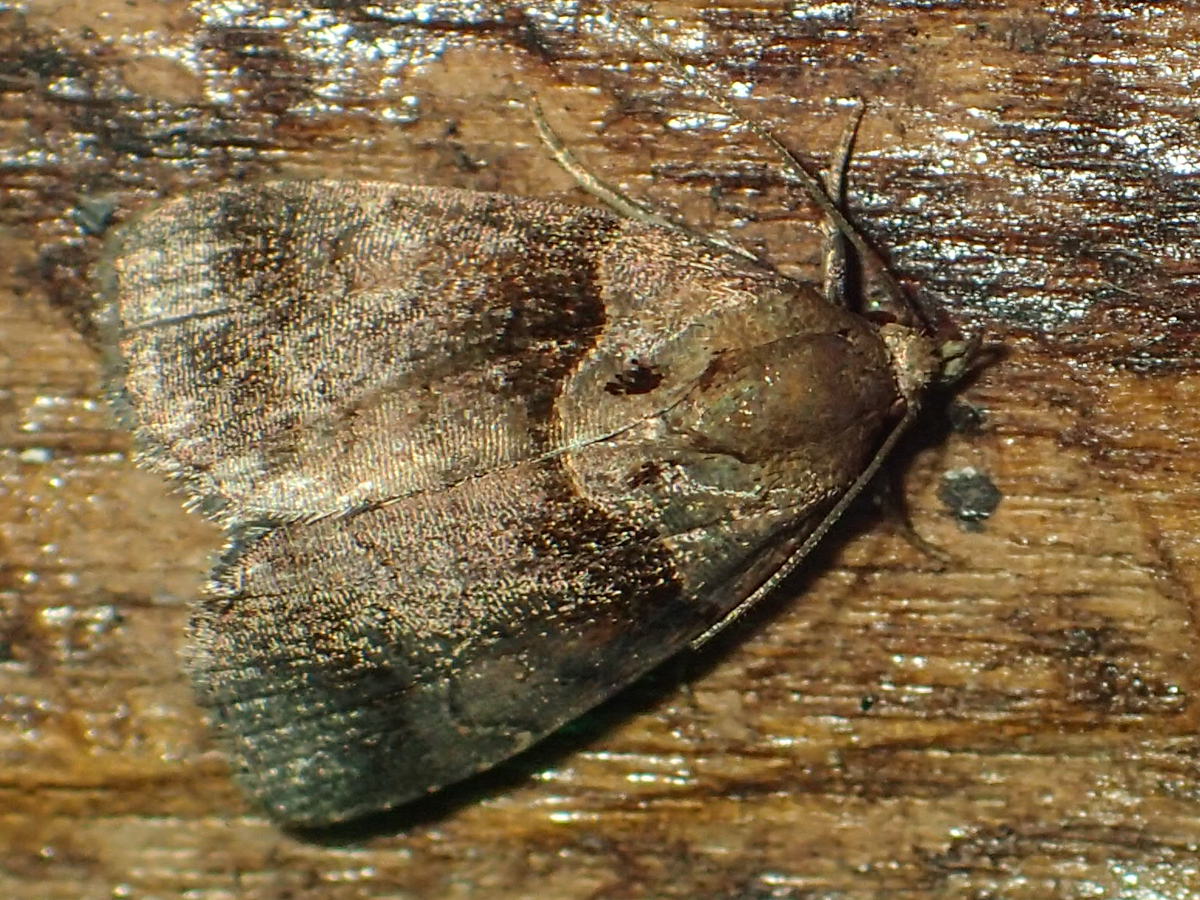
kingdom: Animalia
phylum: Arthropoda
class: Insecta
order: Lepidoptera
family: Noctuidae
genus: Cretonia
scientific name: Cretonia forficula
